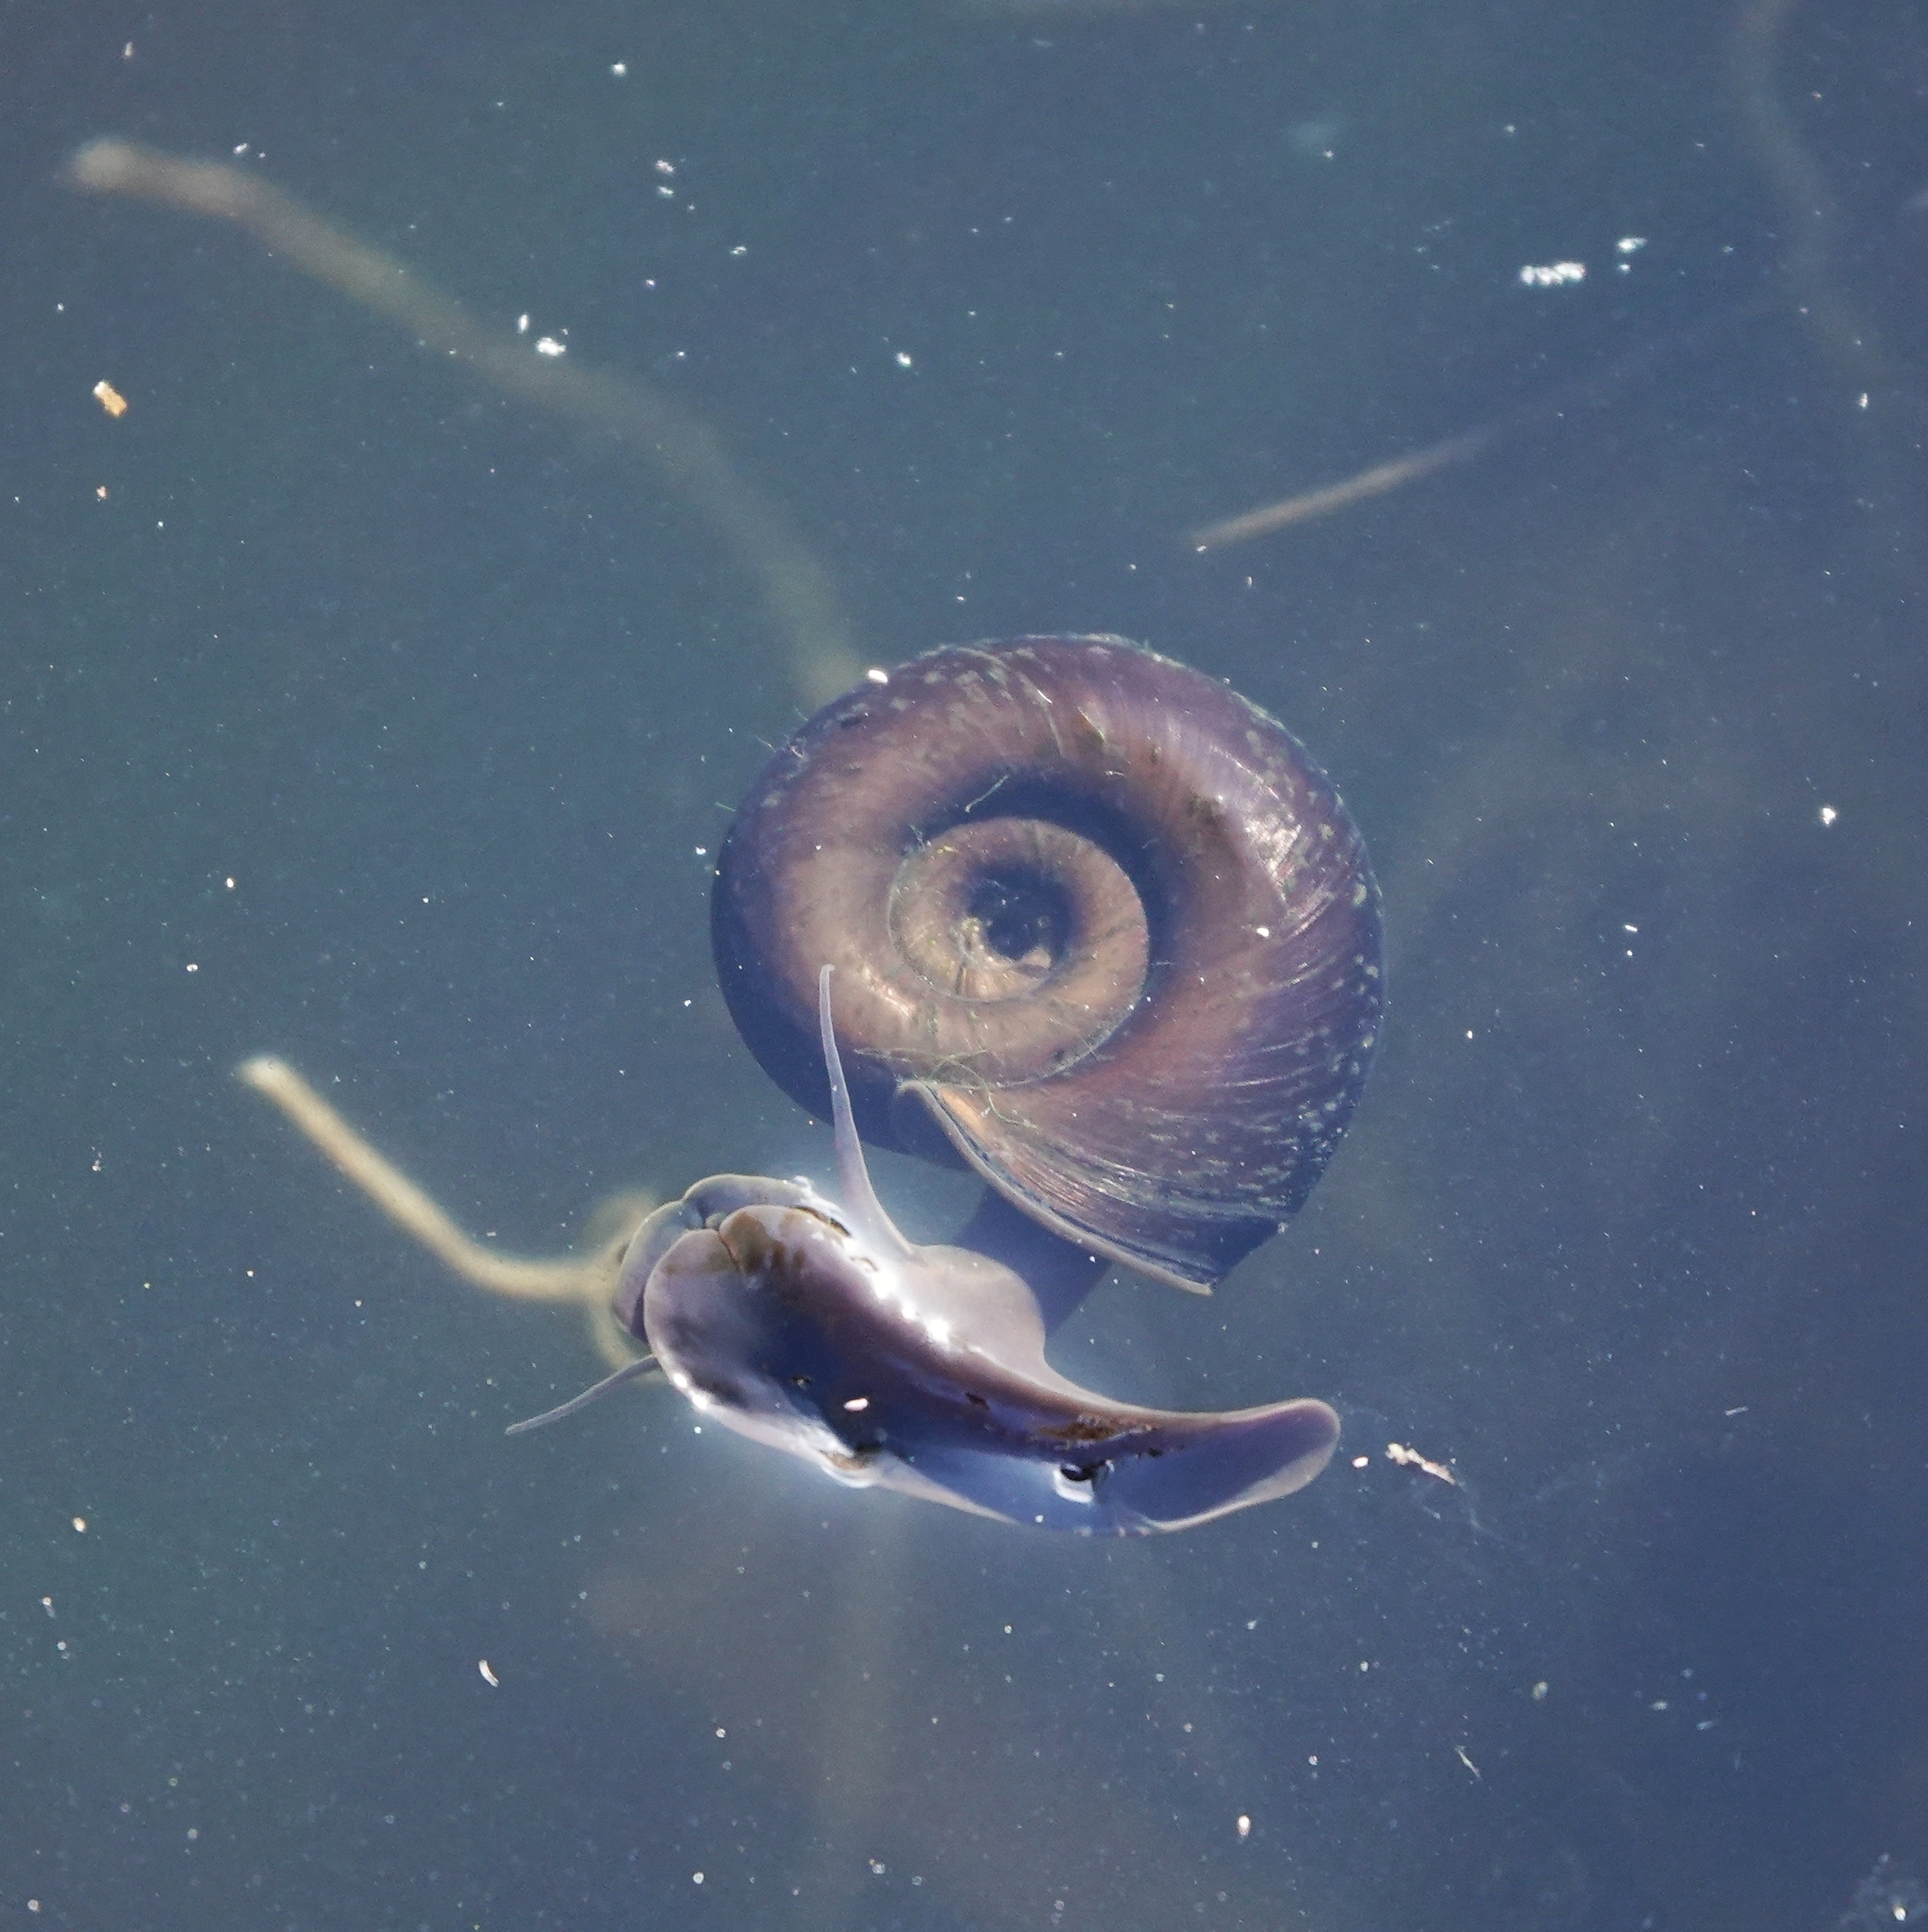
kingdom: Animalia
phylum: Mollusca
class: Gastropoda
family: Planorbidae
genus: Planorbarius
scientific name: Planorbarius corneus
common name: Great ramshorn
